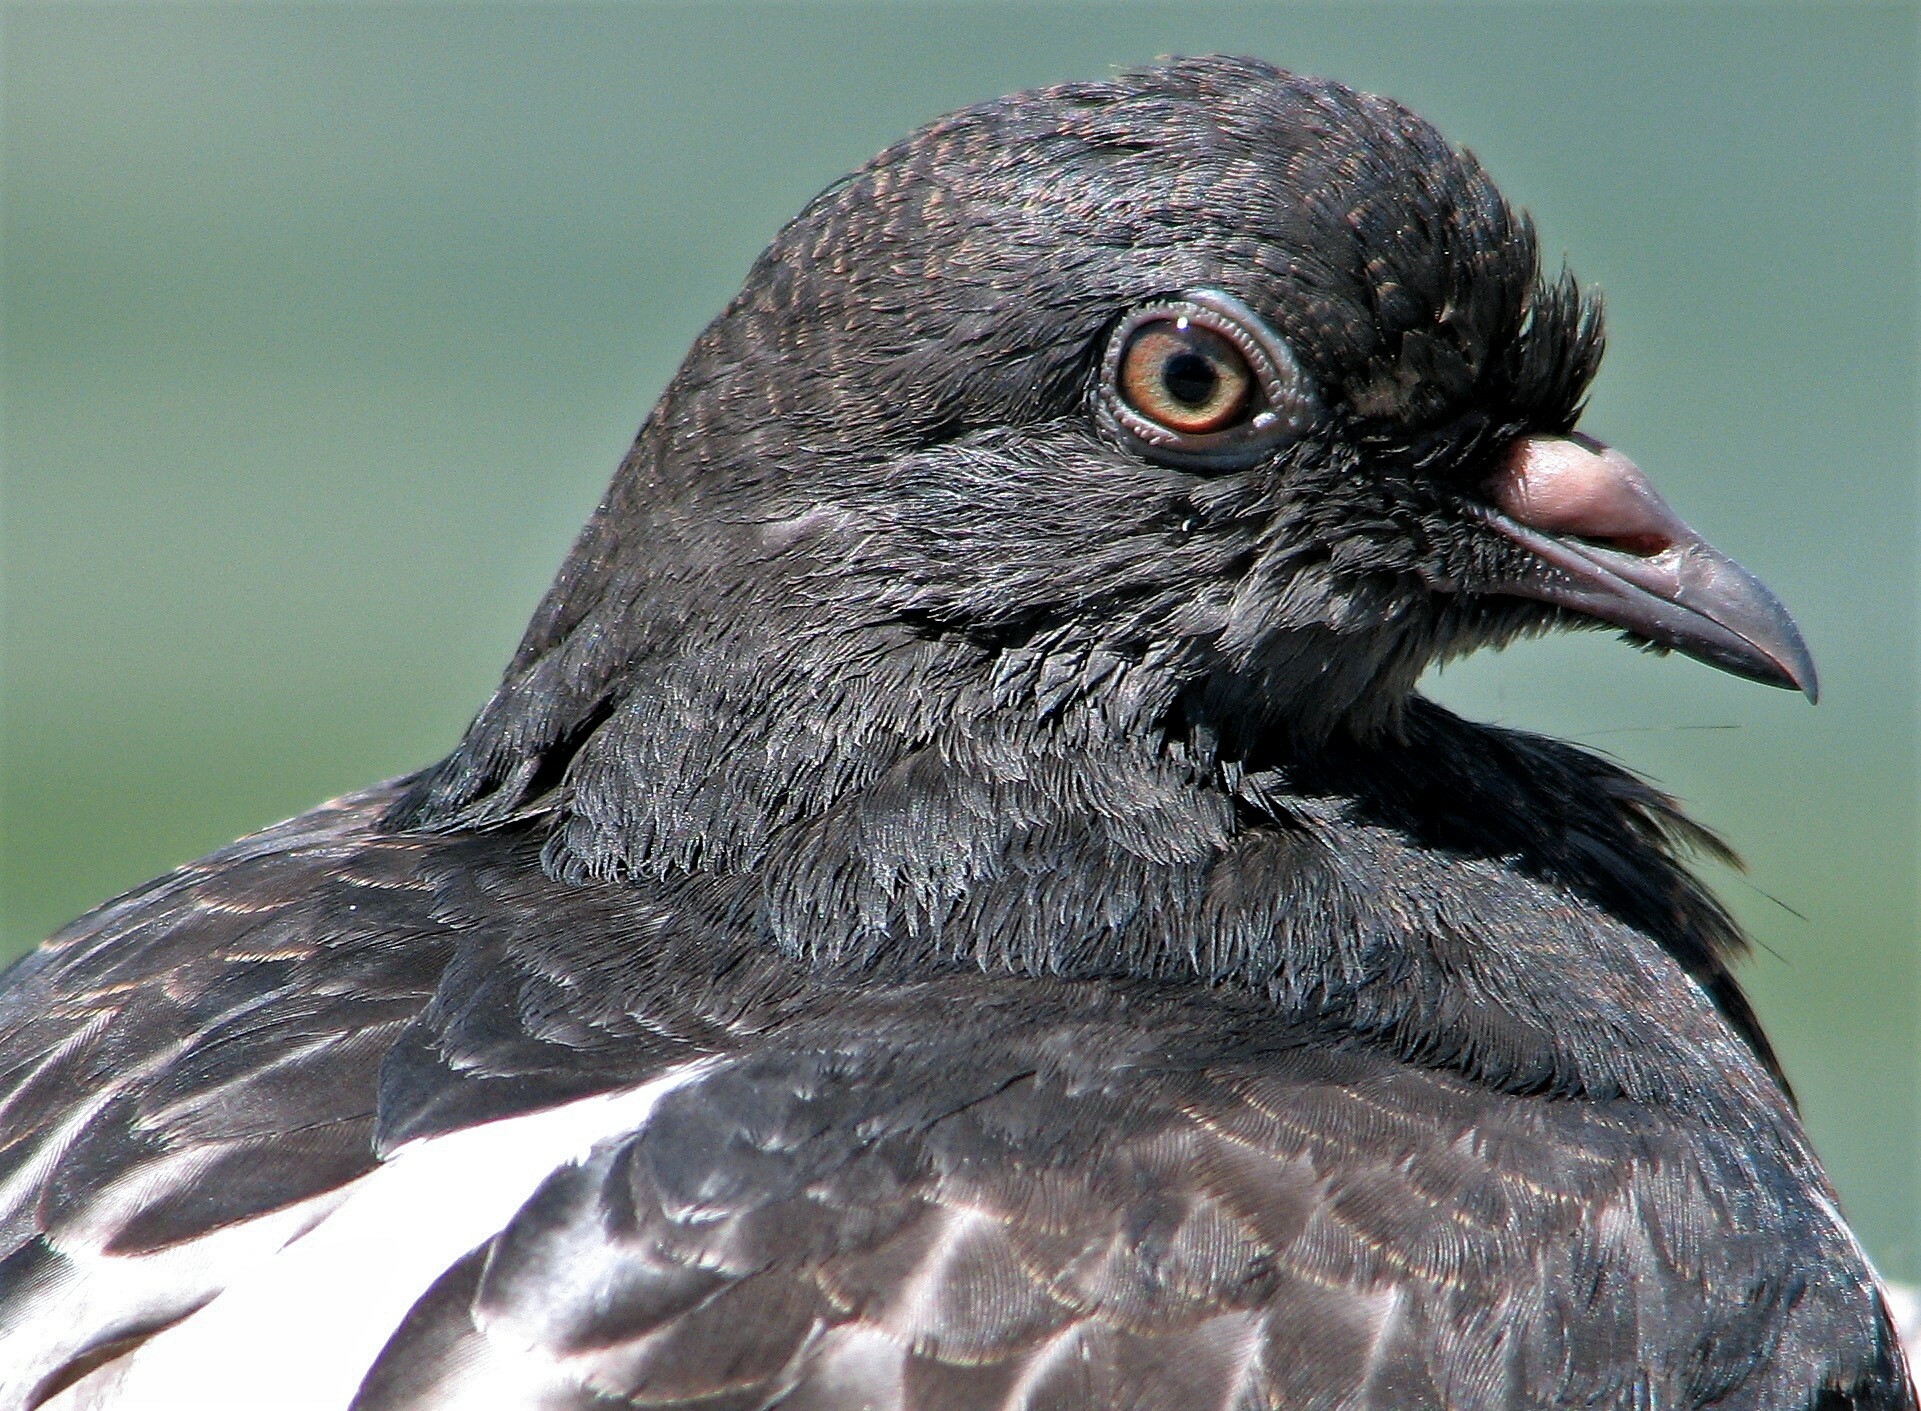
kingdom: Animalia
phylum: Chordata
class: Aves
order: Columbiformes
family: Columbidae
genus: Columba
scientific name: Columba livia
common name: Rock pigeon
